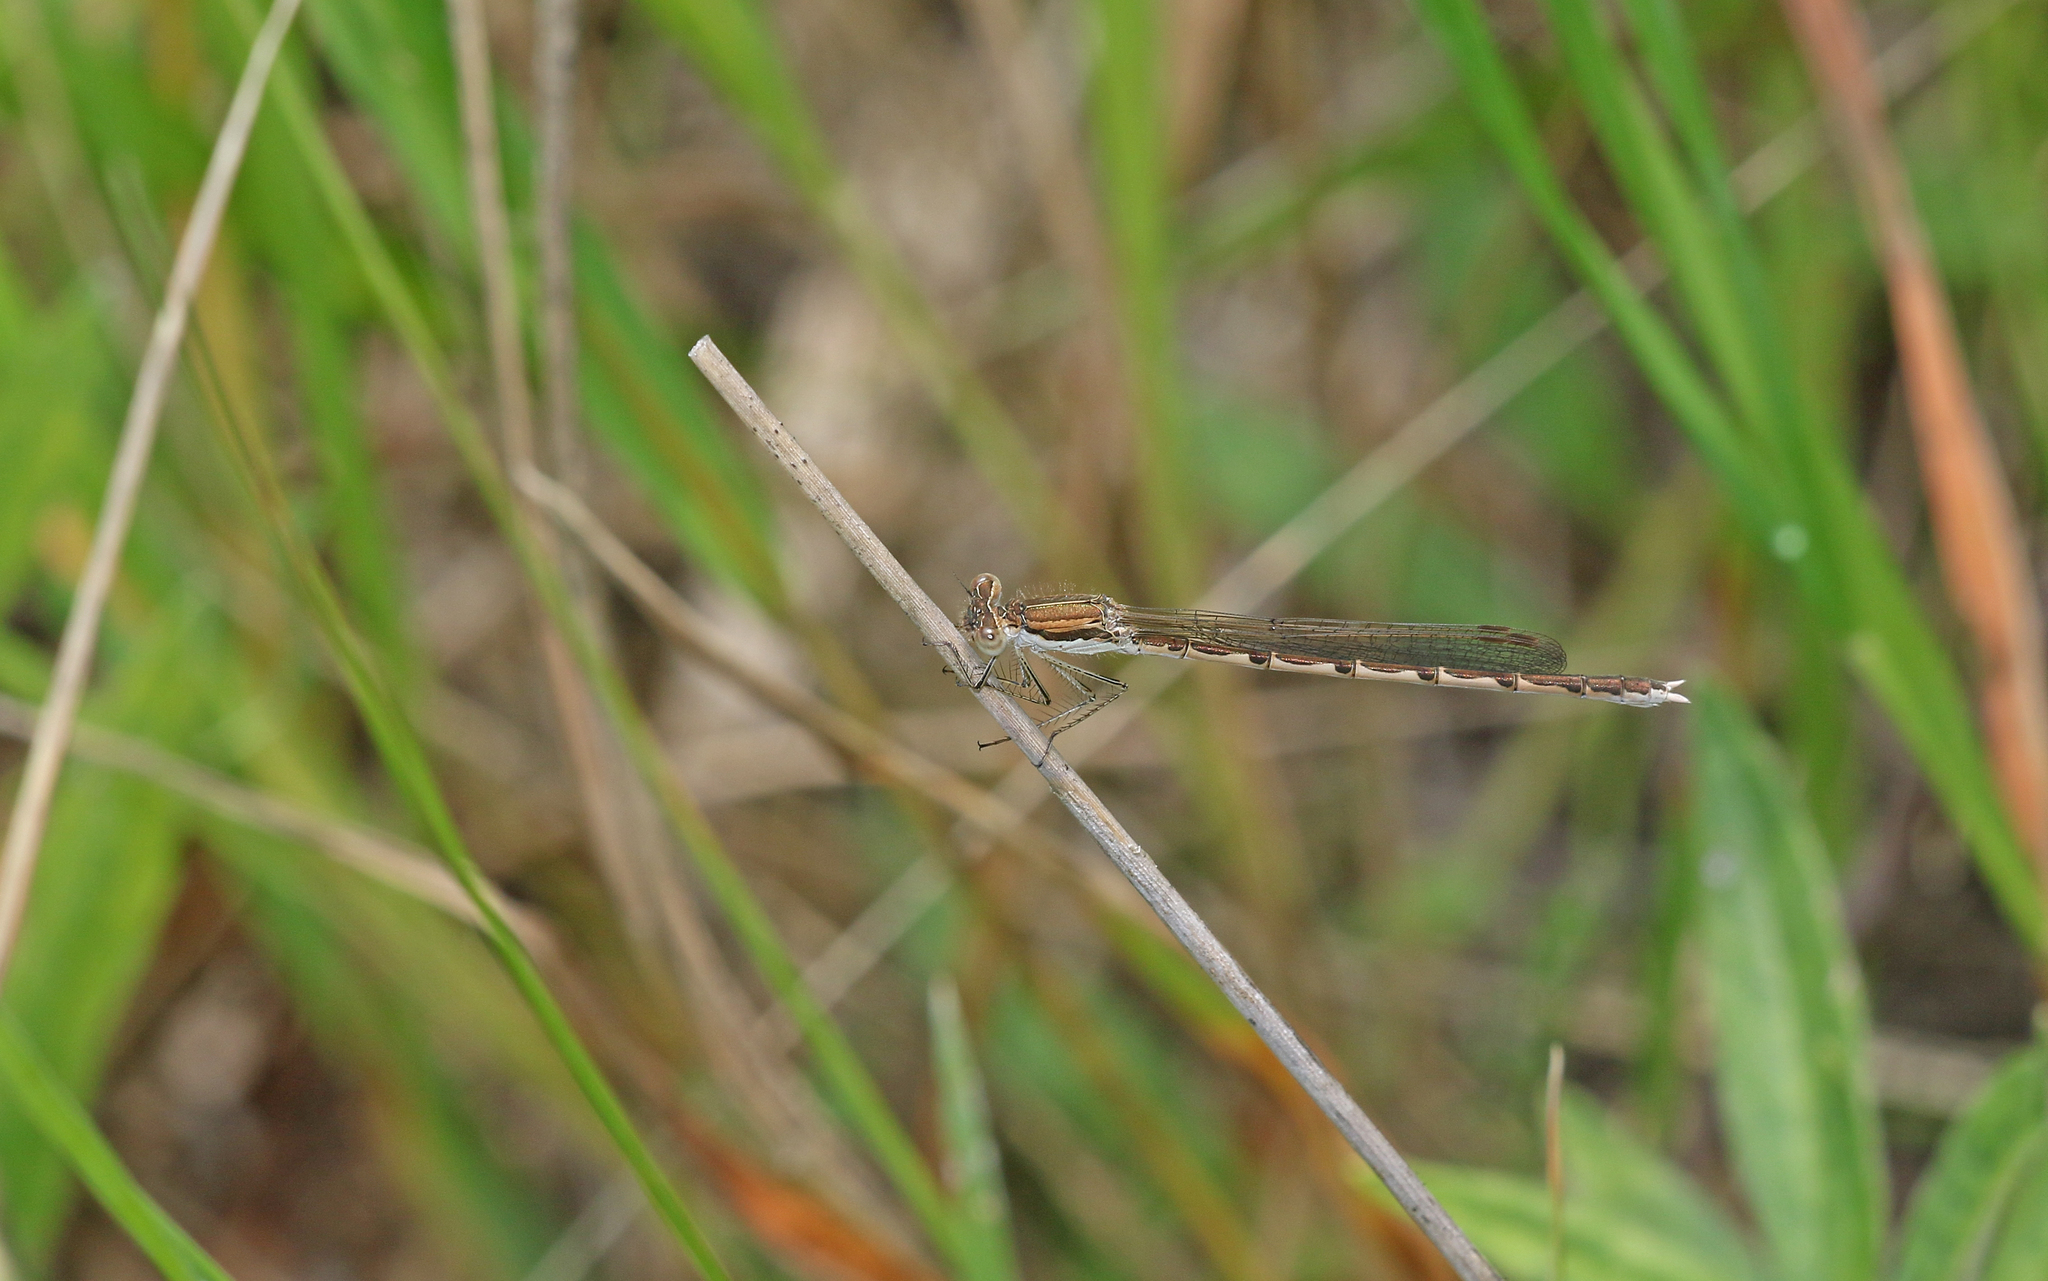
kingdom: Animalia
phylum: Arthropoda
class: Insecta
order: Odonata
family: Lestidae
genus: Sympecma
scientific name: Sympecma fusca
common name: Common winter damsel
